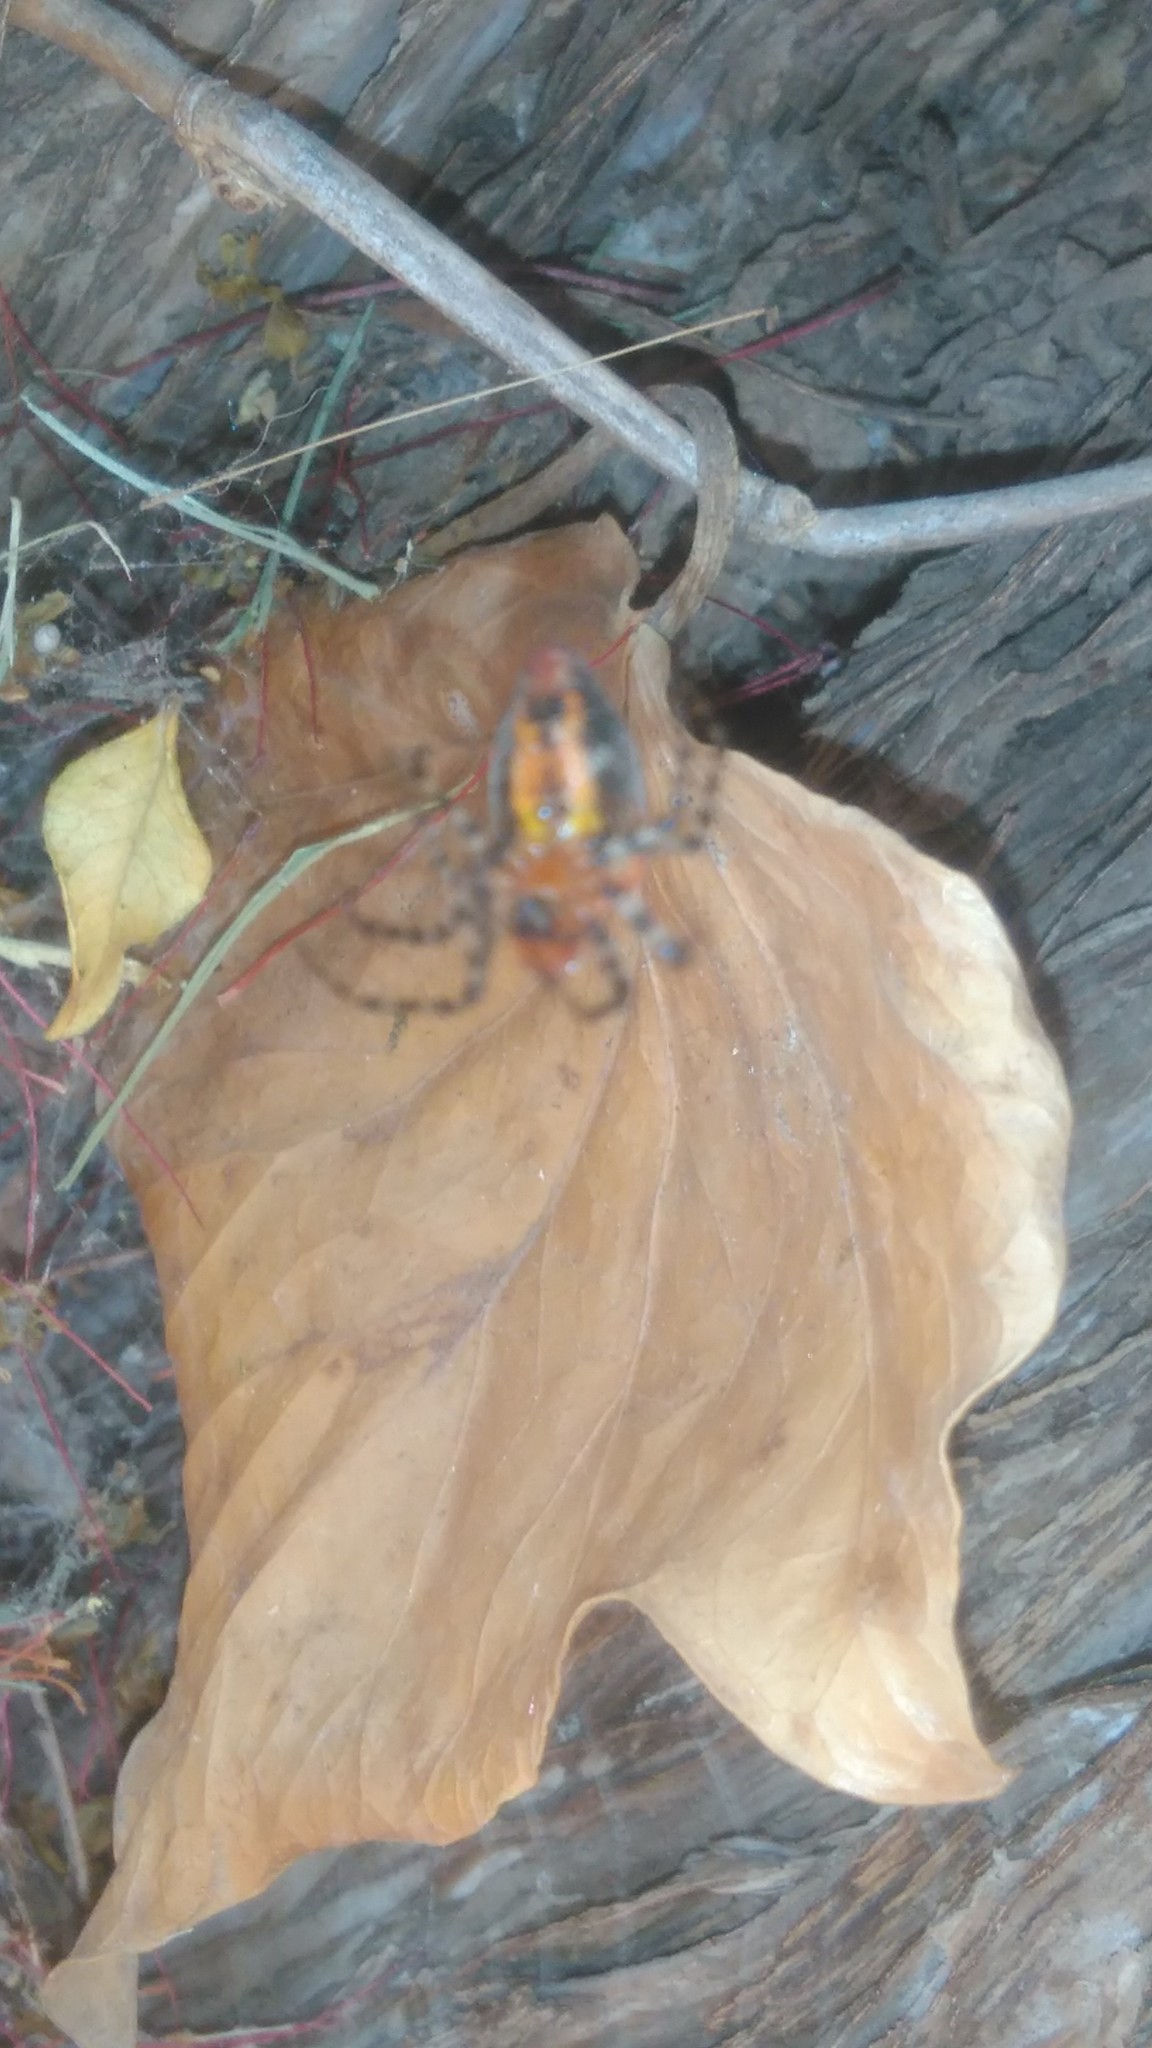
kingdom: Animalia
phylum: Arthropoda
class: Arachnida
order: Araneae
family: Araneidae
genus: Alpaida
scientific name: Alpaida gallardoi
